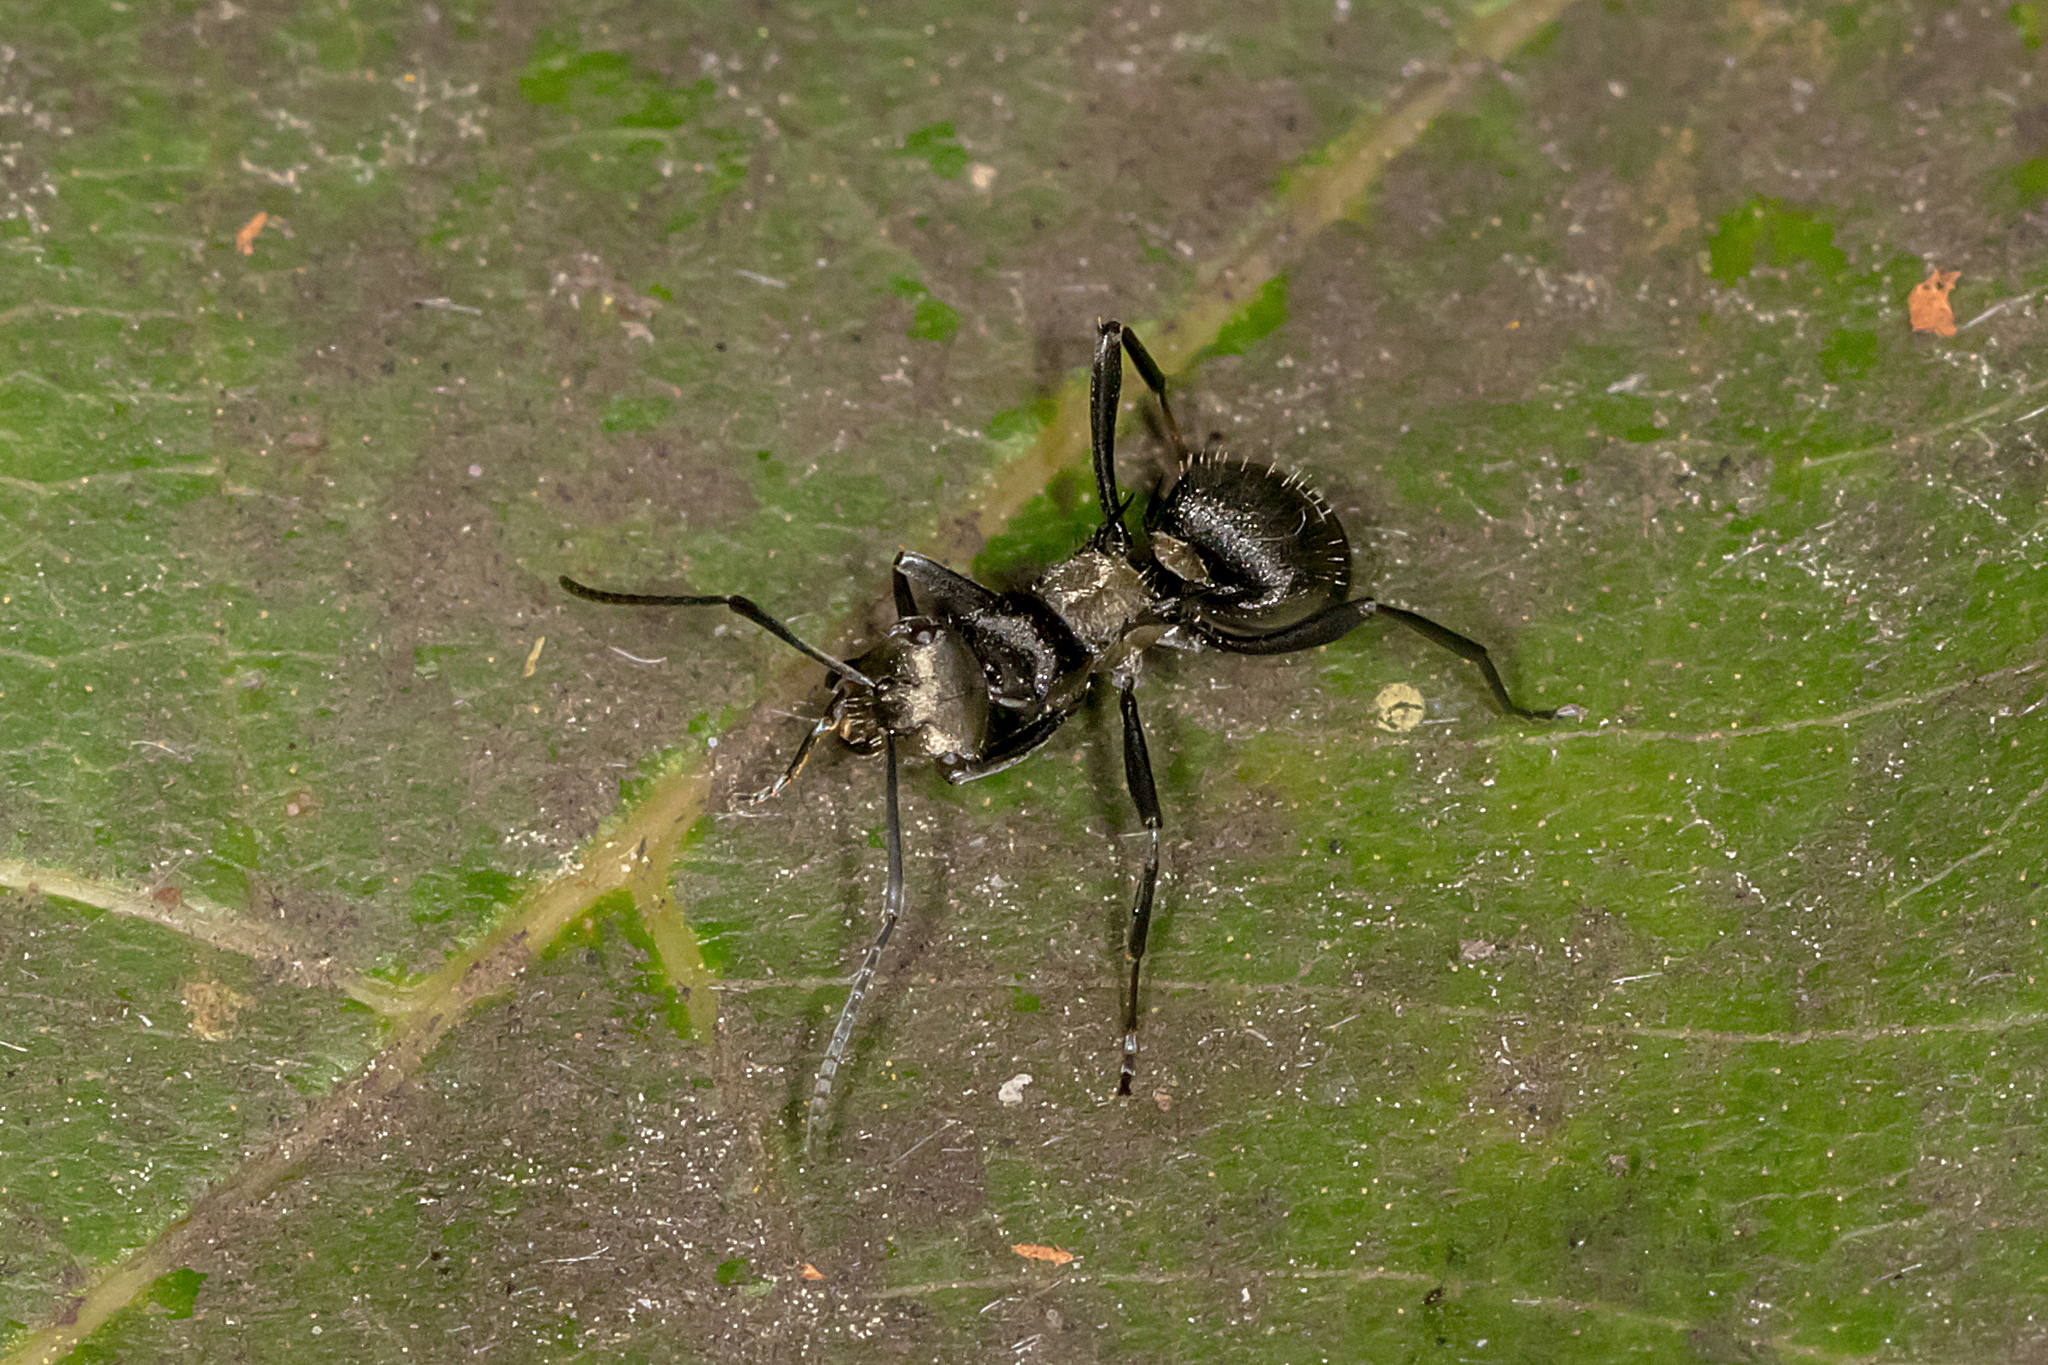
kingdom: Animalia
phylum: Arthropoda
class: Insecta
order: Hymenoptera
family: Formicidae
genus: Polyrhachis
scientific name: Polyrhachis daemeli
